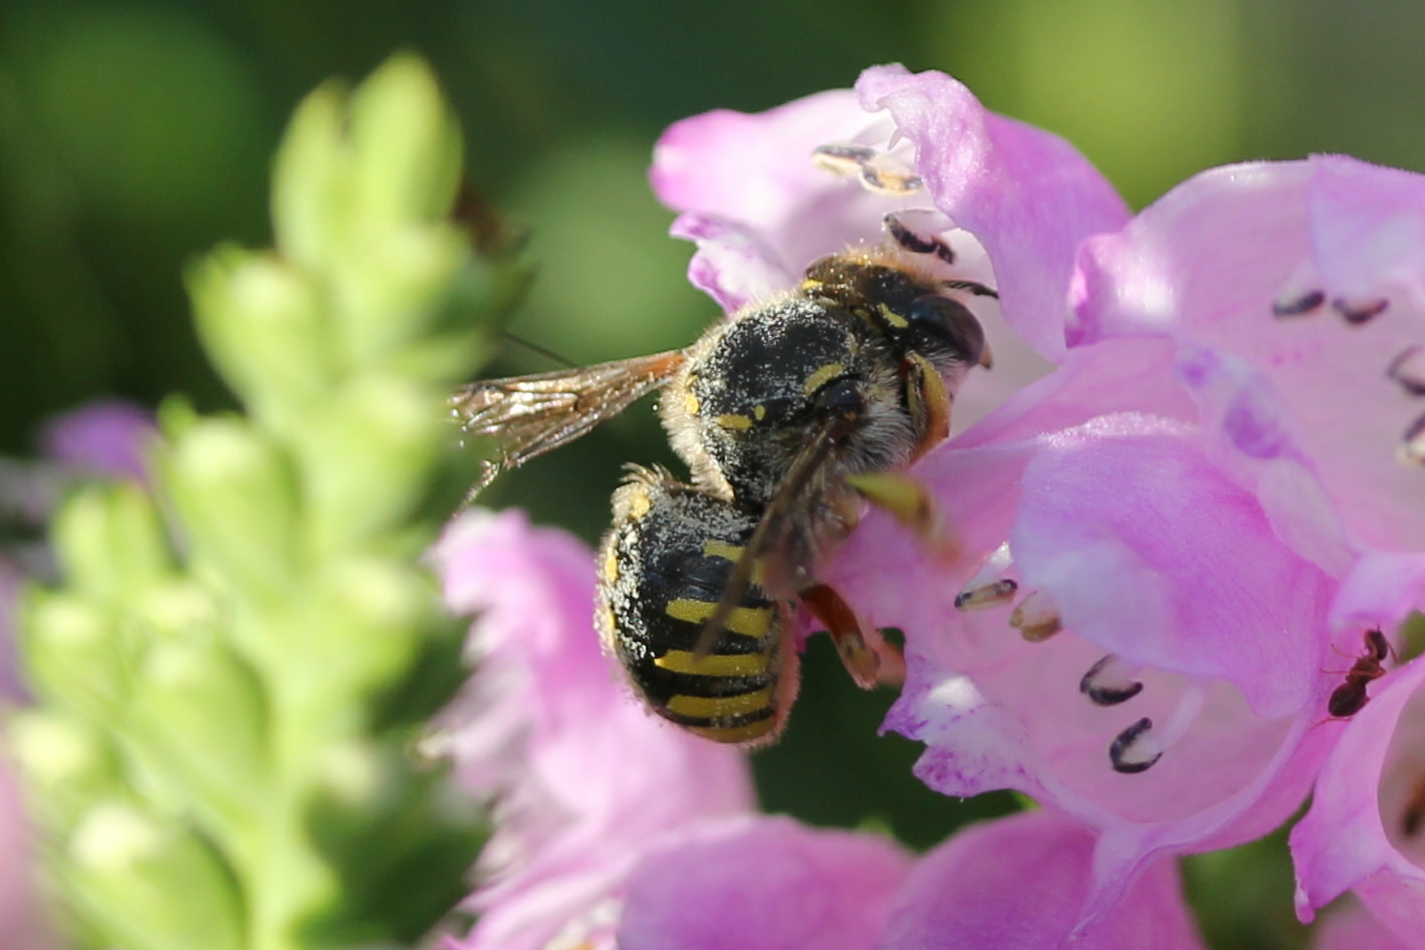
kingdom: Animalia
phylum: Arthropoda
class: Insecta
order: Hymenoptera
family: Megachilidae
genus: Anthidium
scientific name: Anthidium manicatum
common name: Wool carder bee
